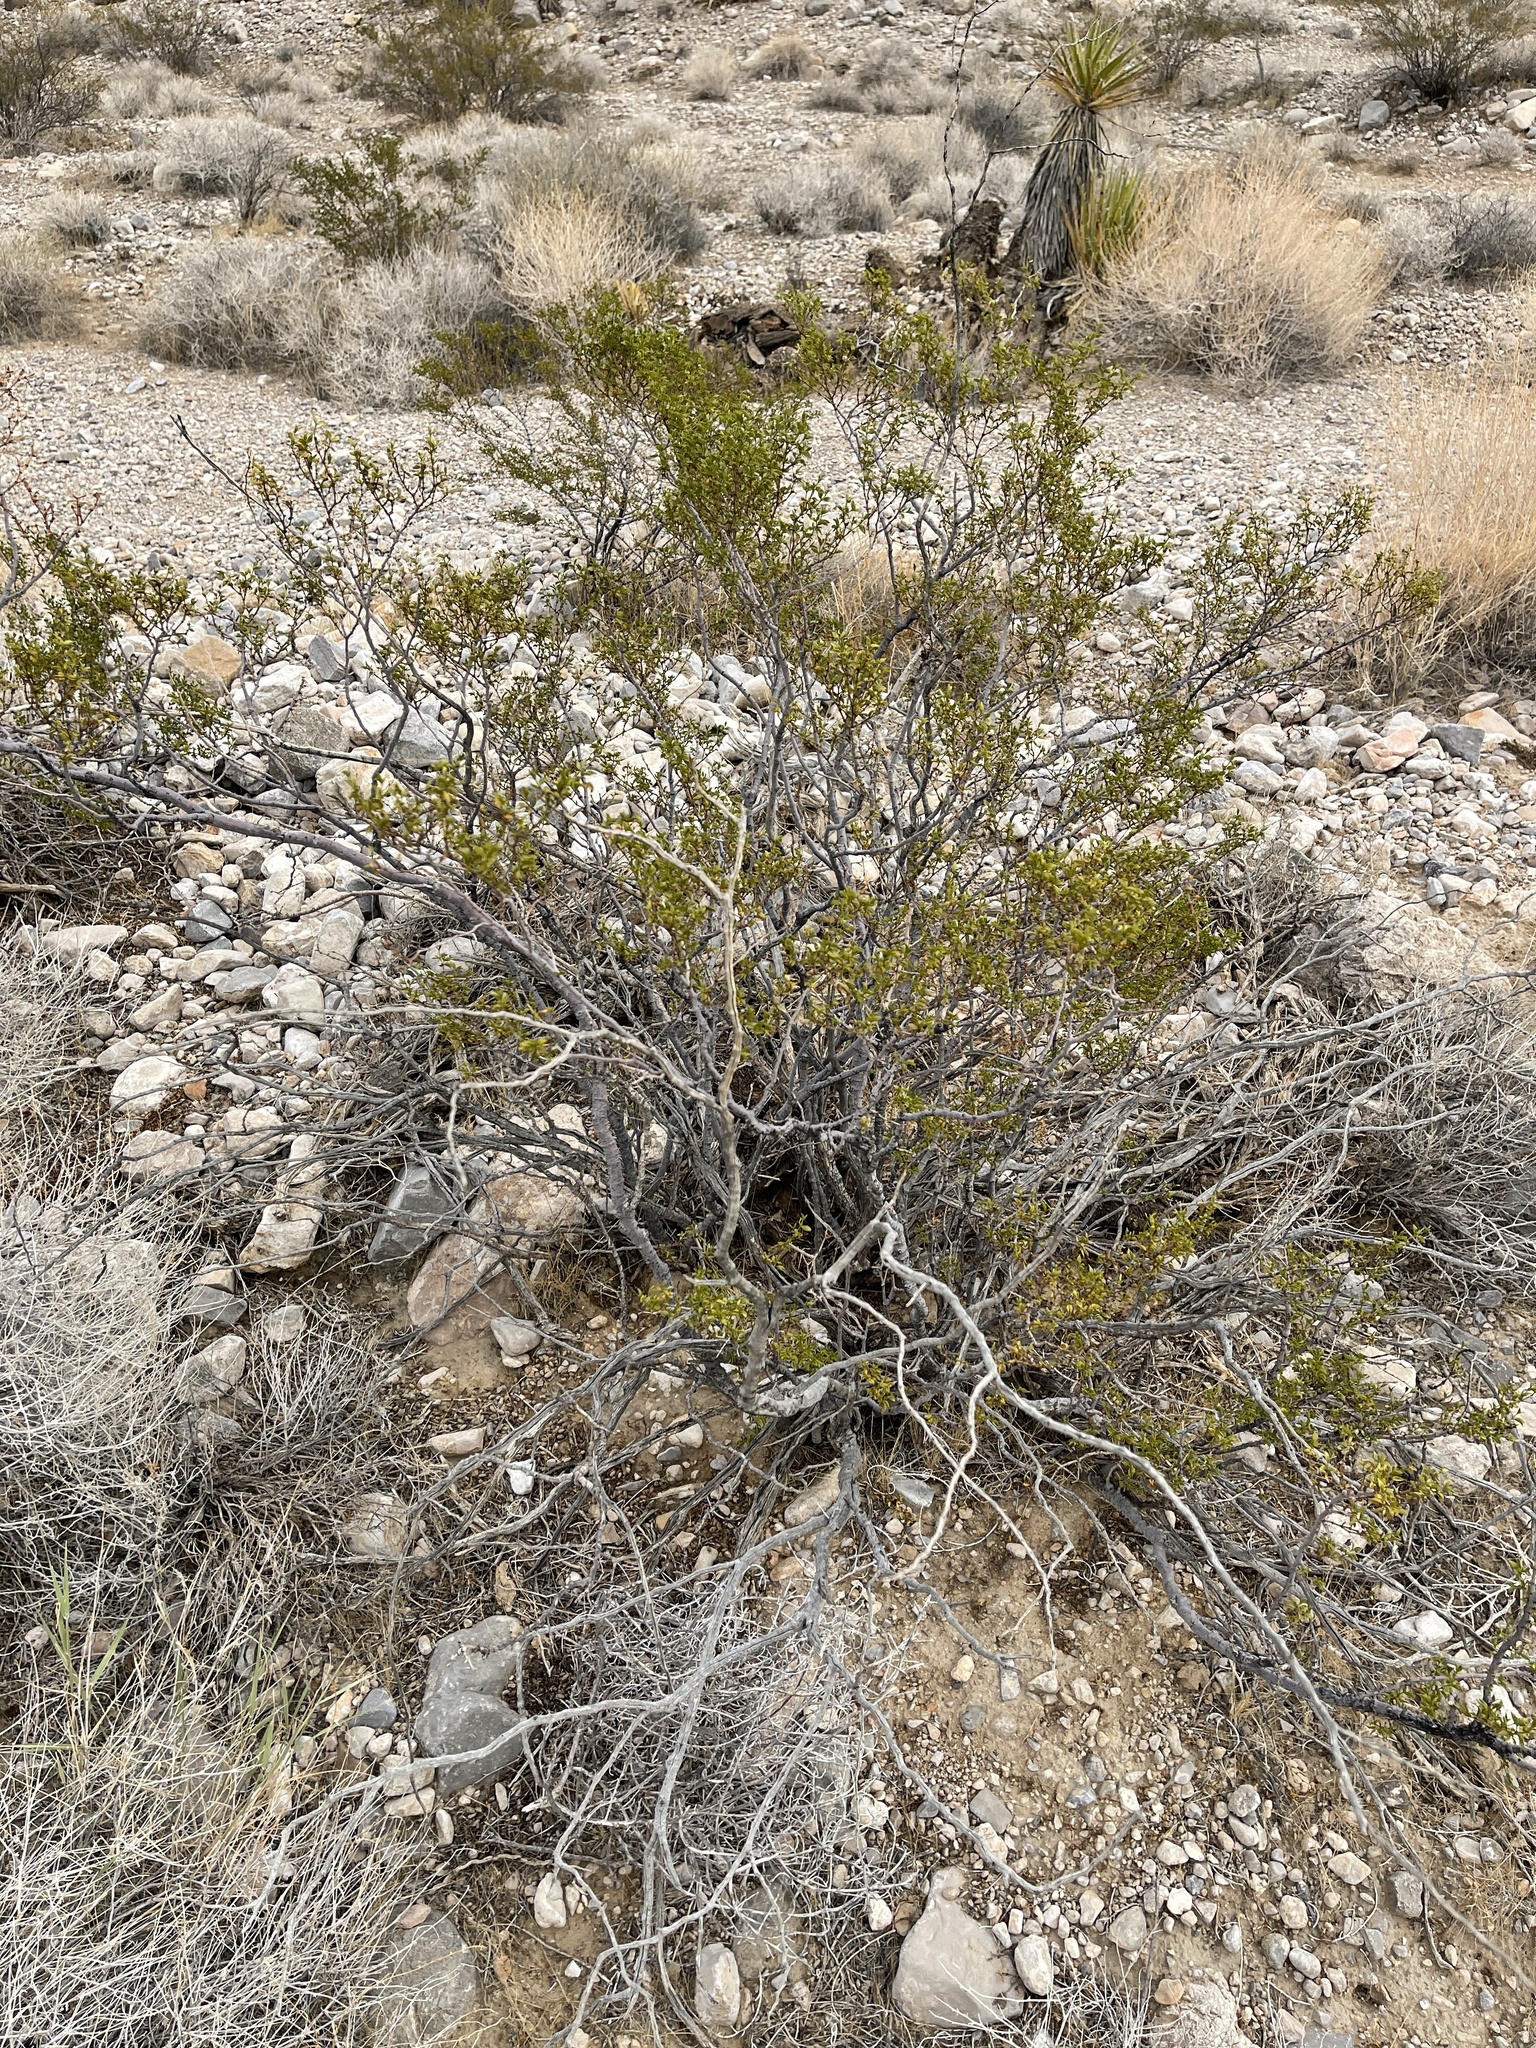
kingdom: Plantae
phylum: Tracheophyta
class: Magnoliopsida
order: Zygophyllales
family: Zygophyllaceae
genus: Larrea
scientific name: Larrea tridentata
